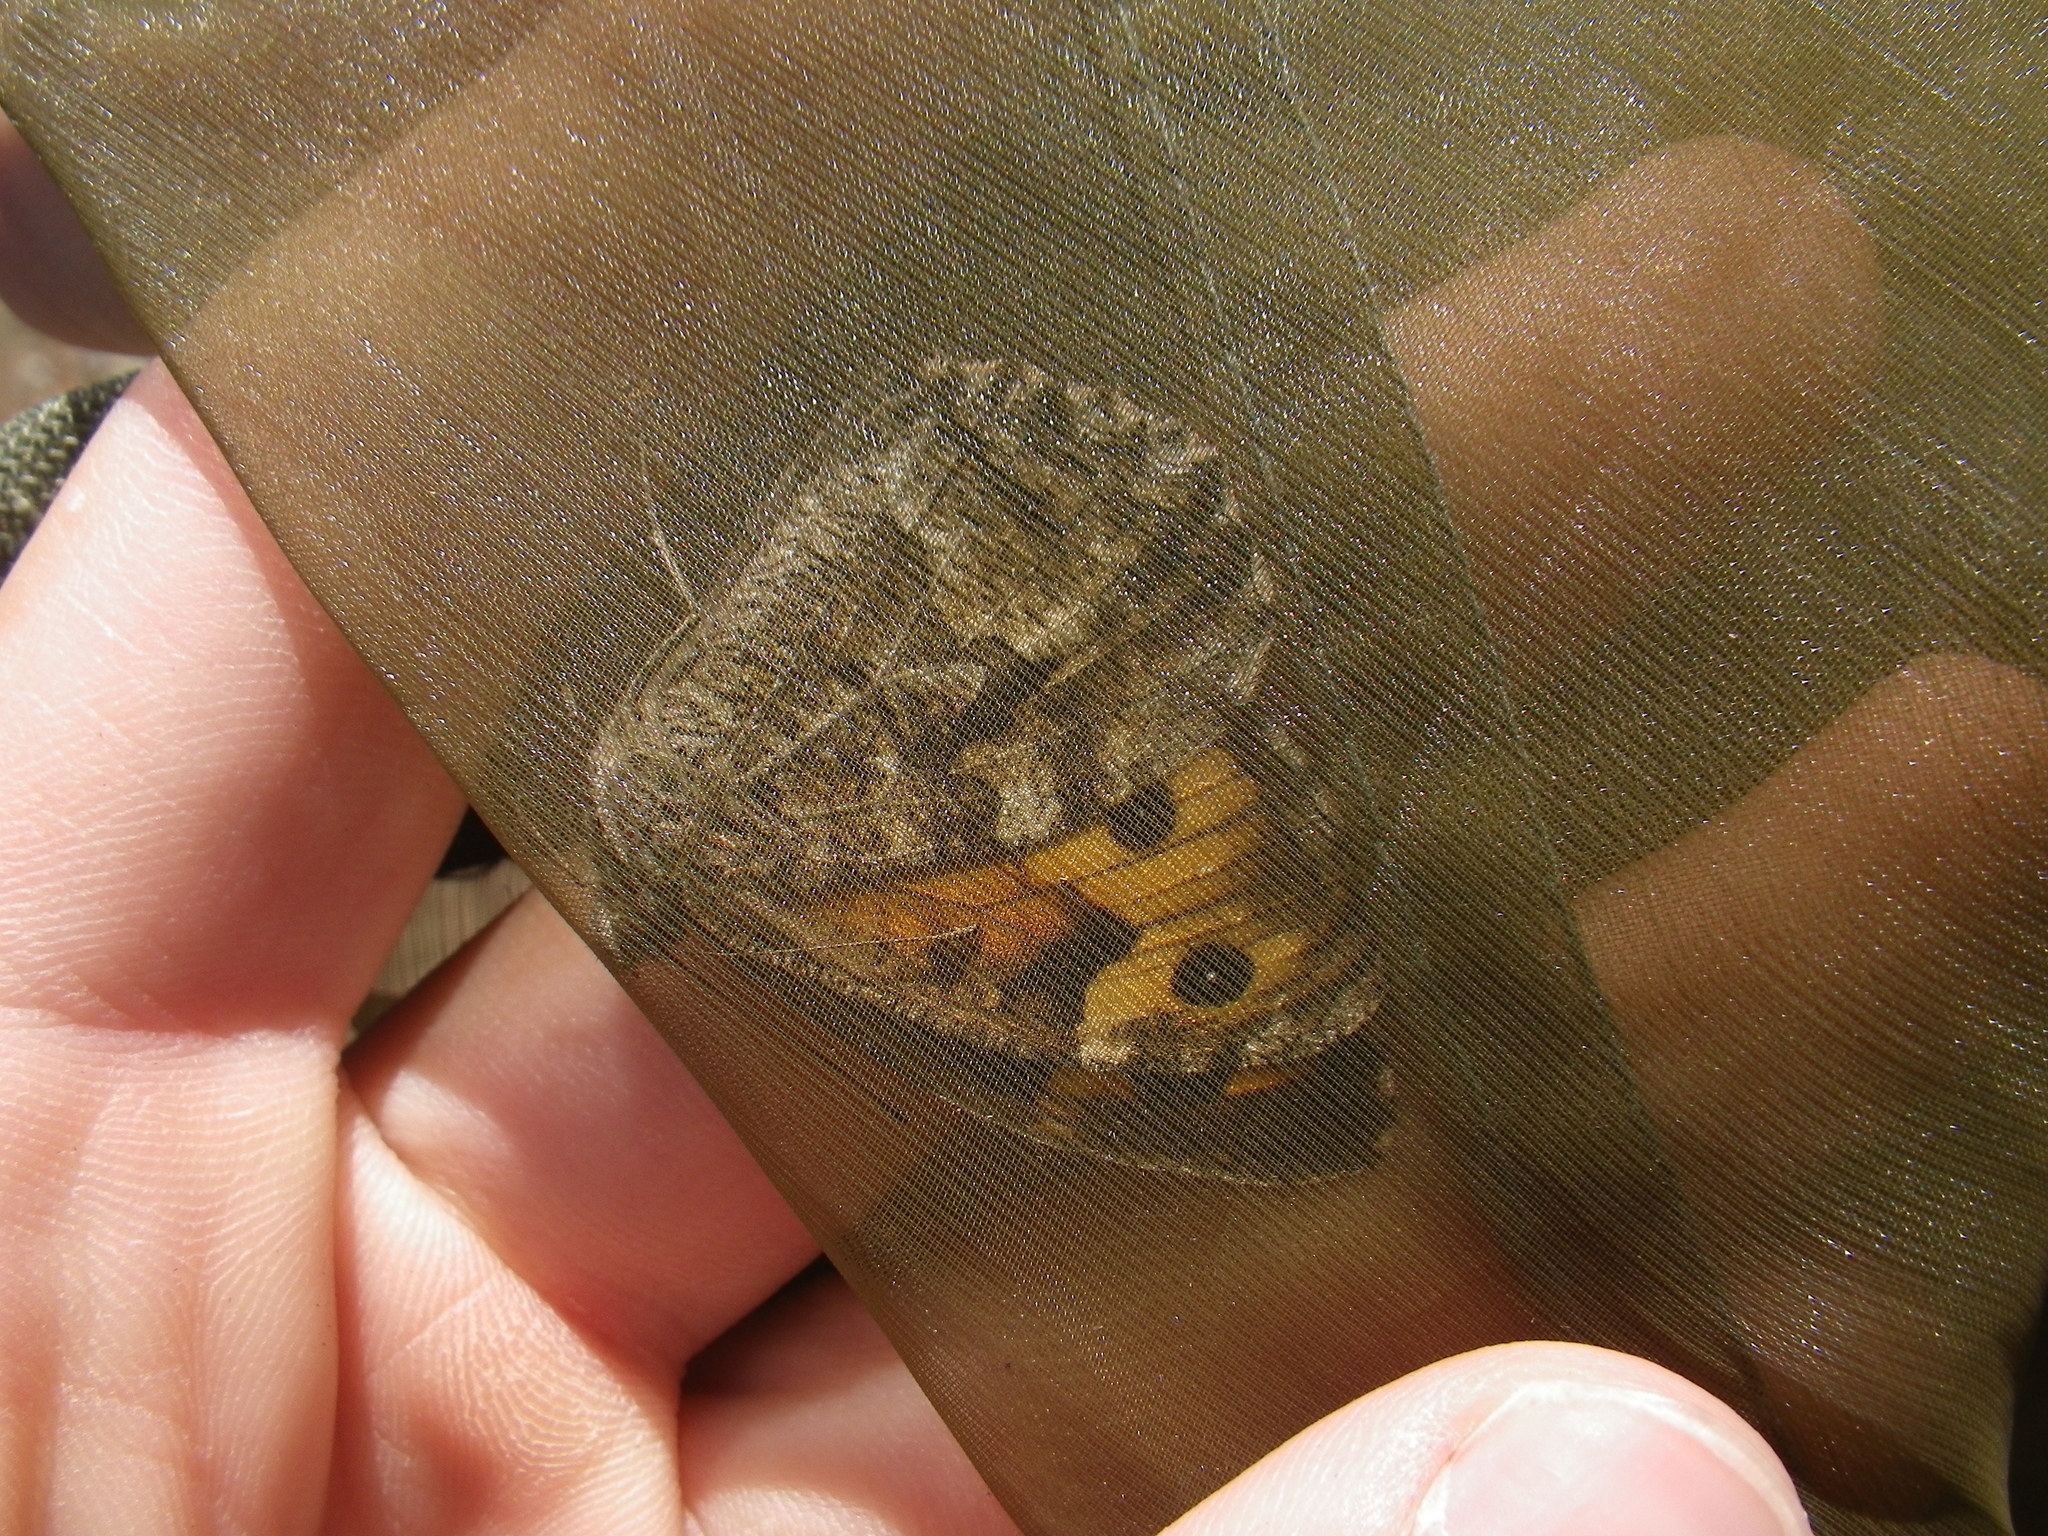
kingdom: Animalia
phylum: Arthropoda
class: Insecta
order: Lepidoptera
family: Nymphalidae
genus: Hipparchia
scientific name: Hipparchia semele
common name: Grayling
